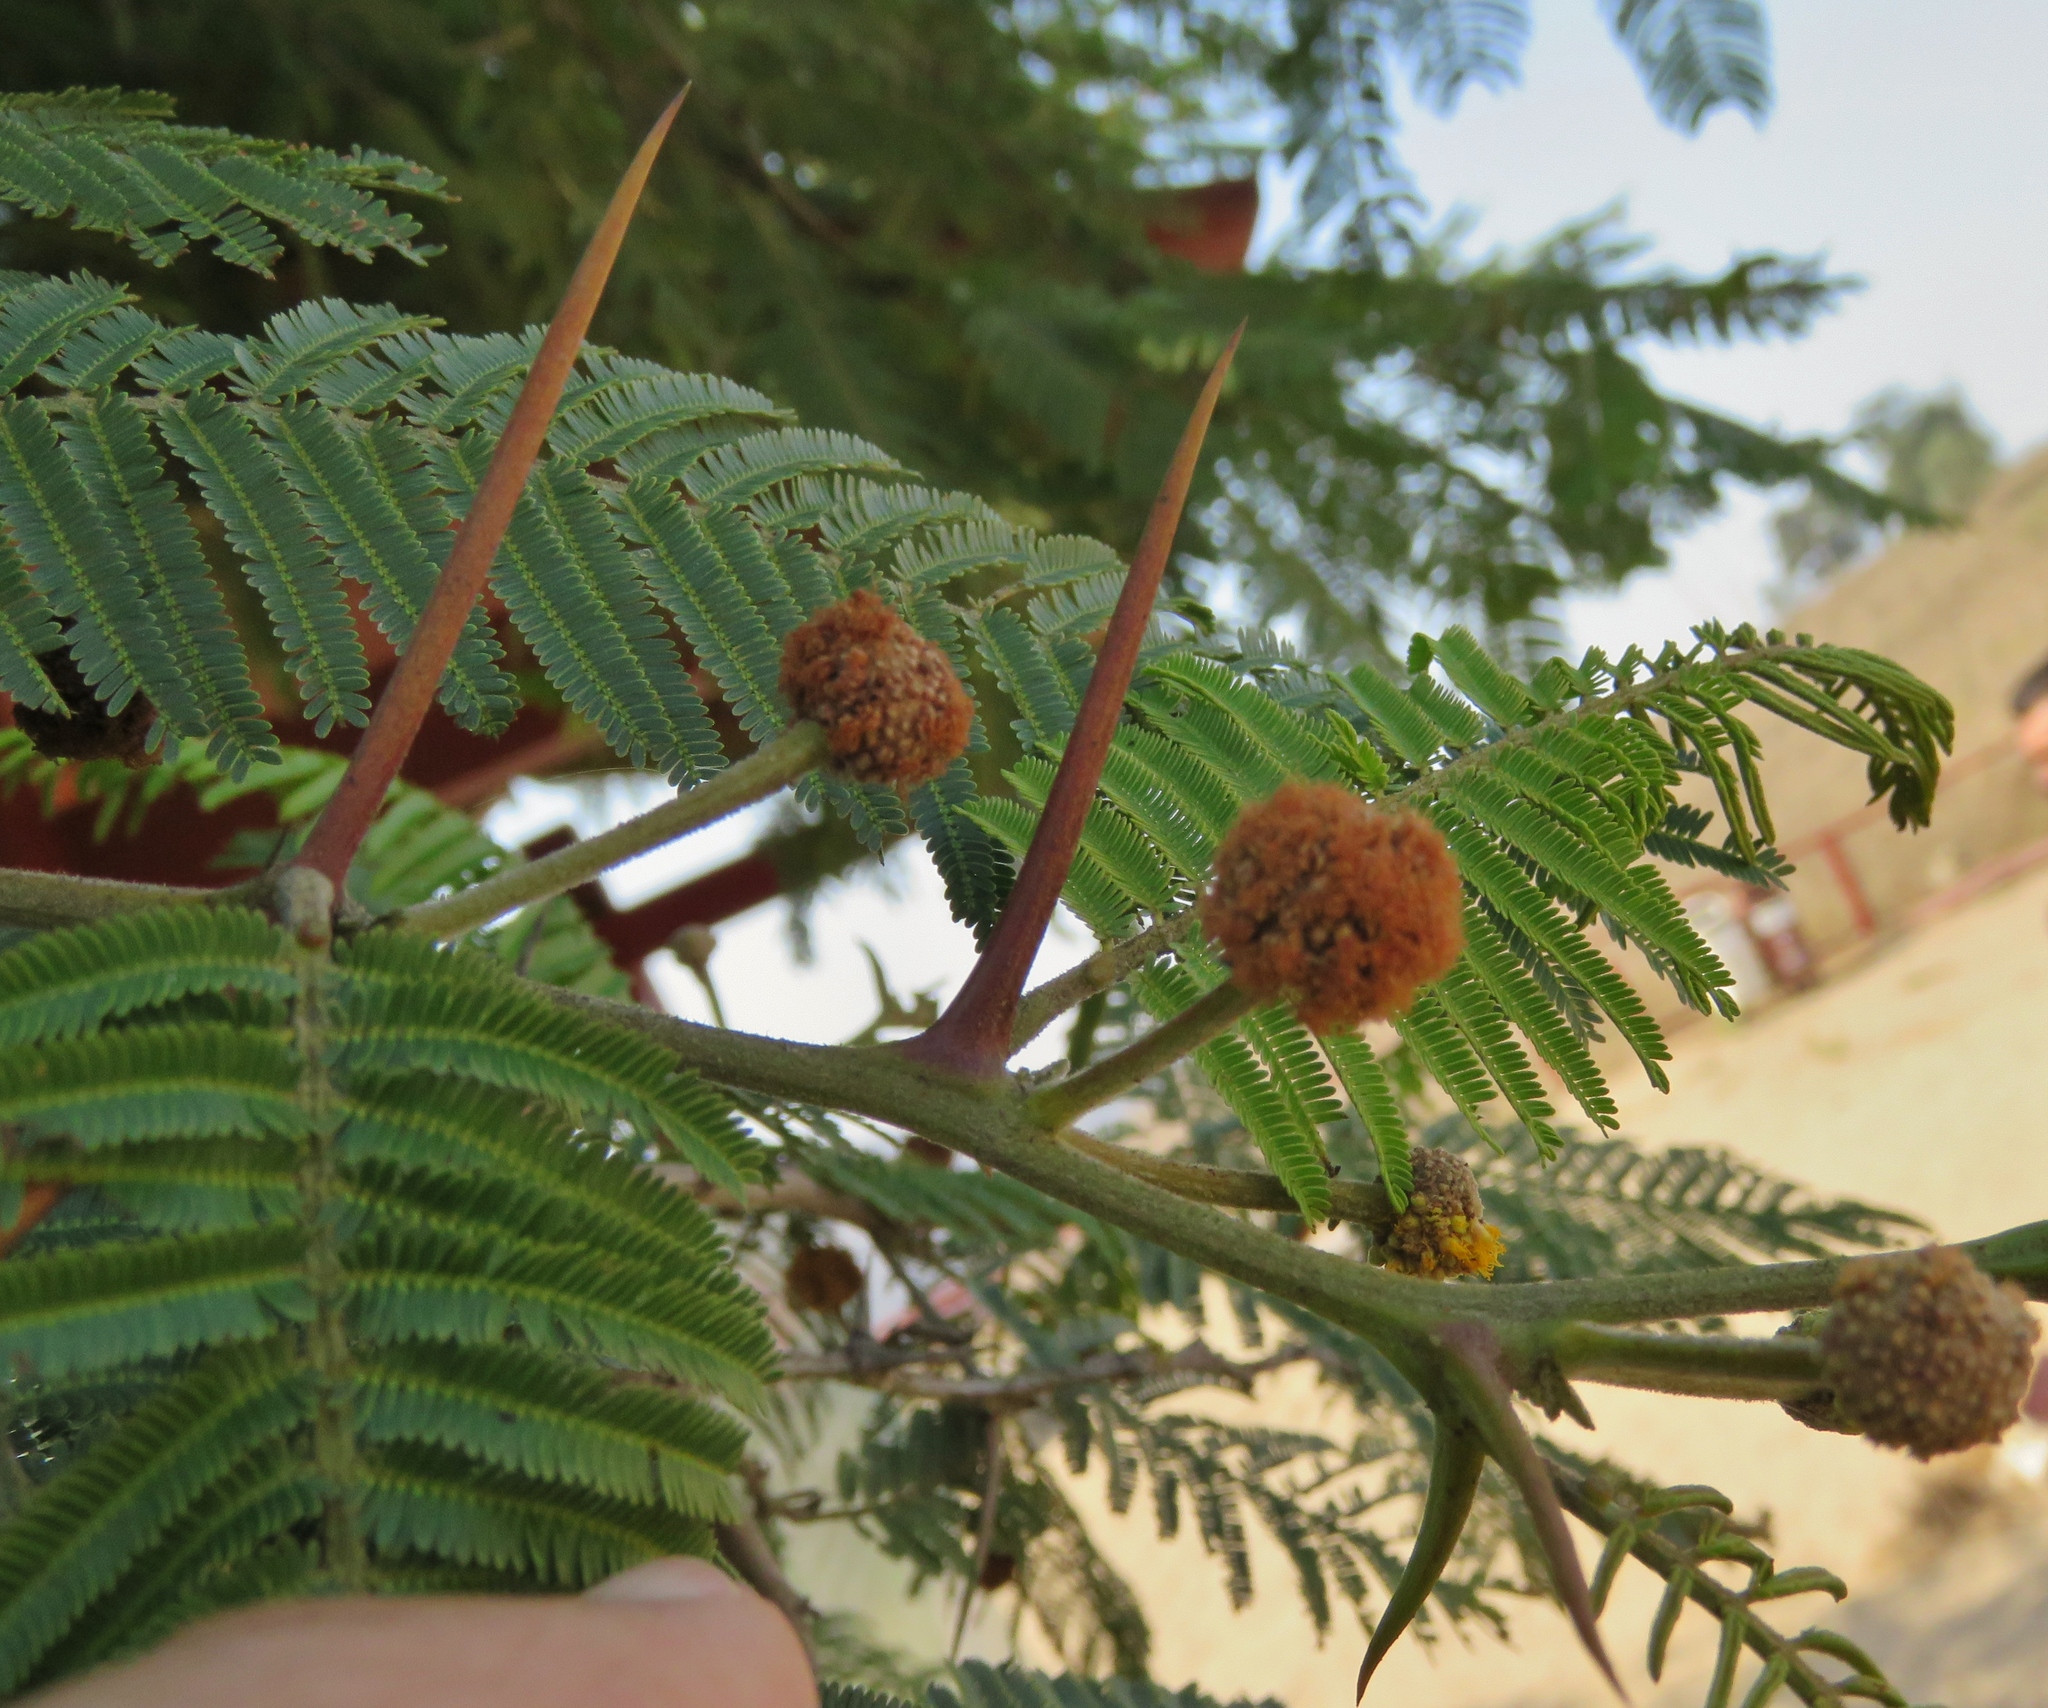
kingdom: Plantae
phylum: Tracheophyta
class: Magnoliopsida
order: Fabales
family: Fabaceae
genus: Vachellia
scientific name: Vachellia macracantha
